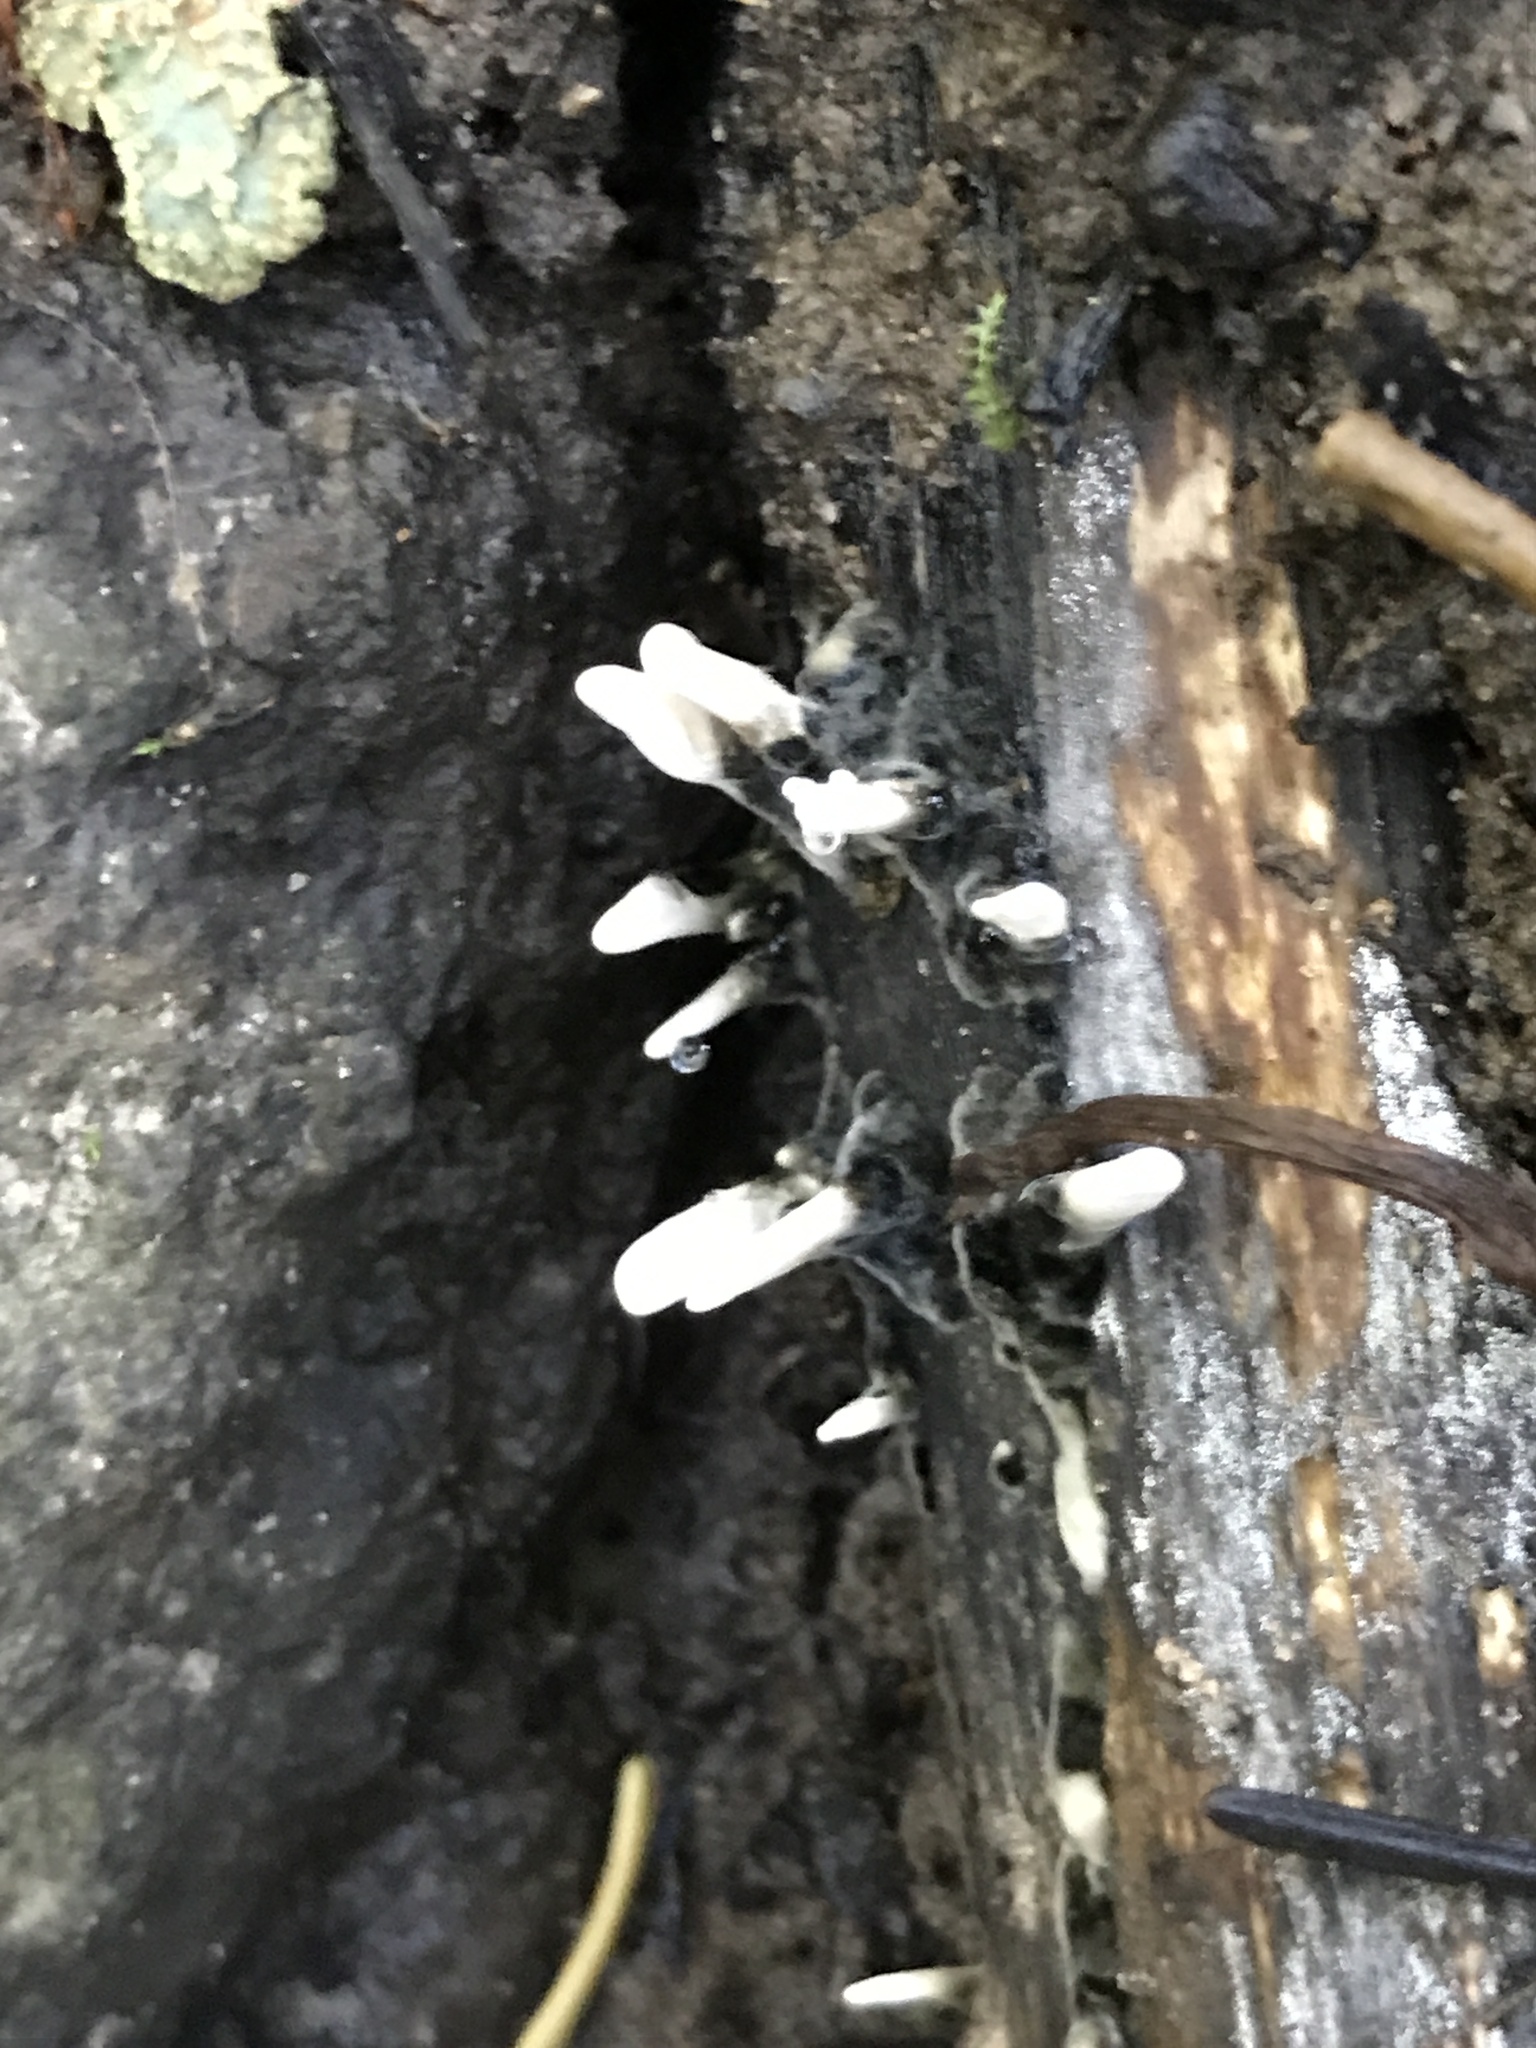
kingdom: Fungi
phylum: Ascomycota
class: Sordariomycetes
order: Xylariales
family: Xylariaceae
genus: Xylaria
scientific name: Xylaria hypoxylon
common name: Candle-snuff fungus
